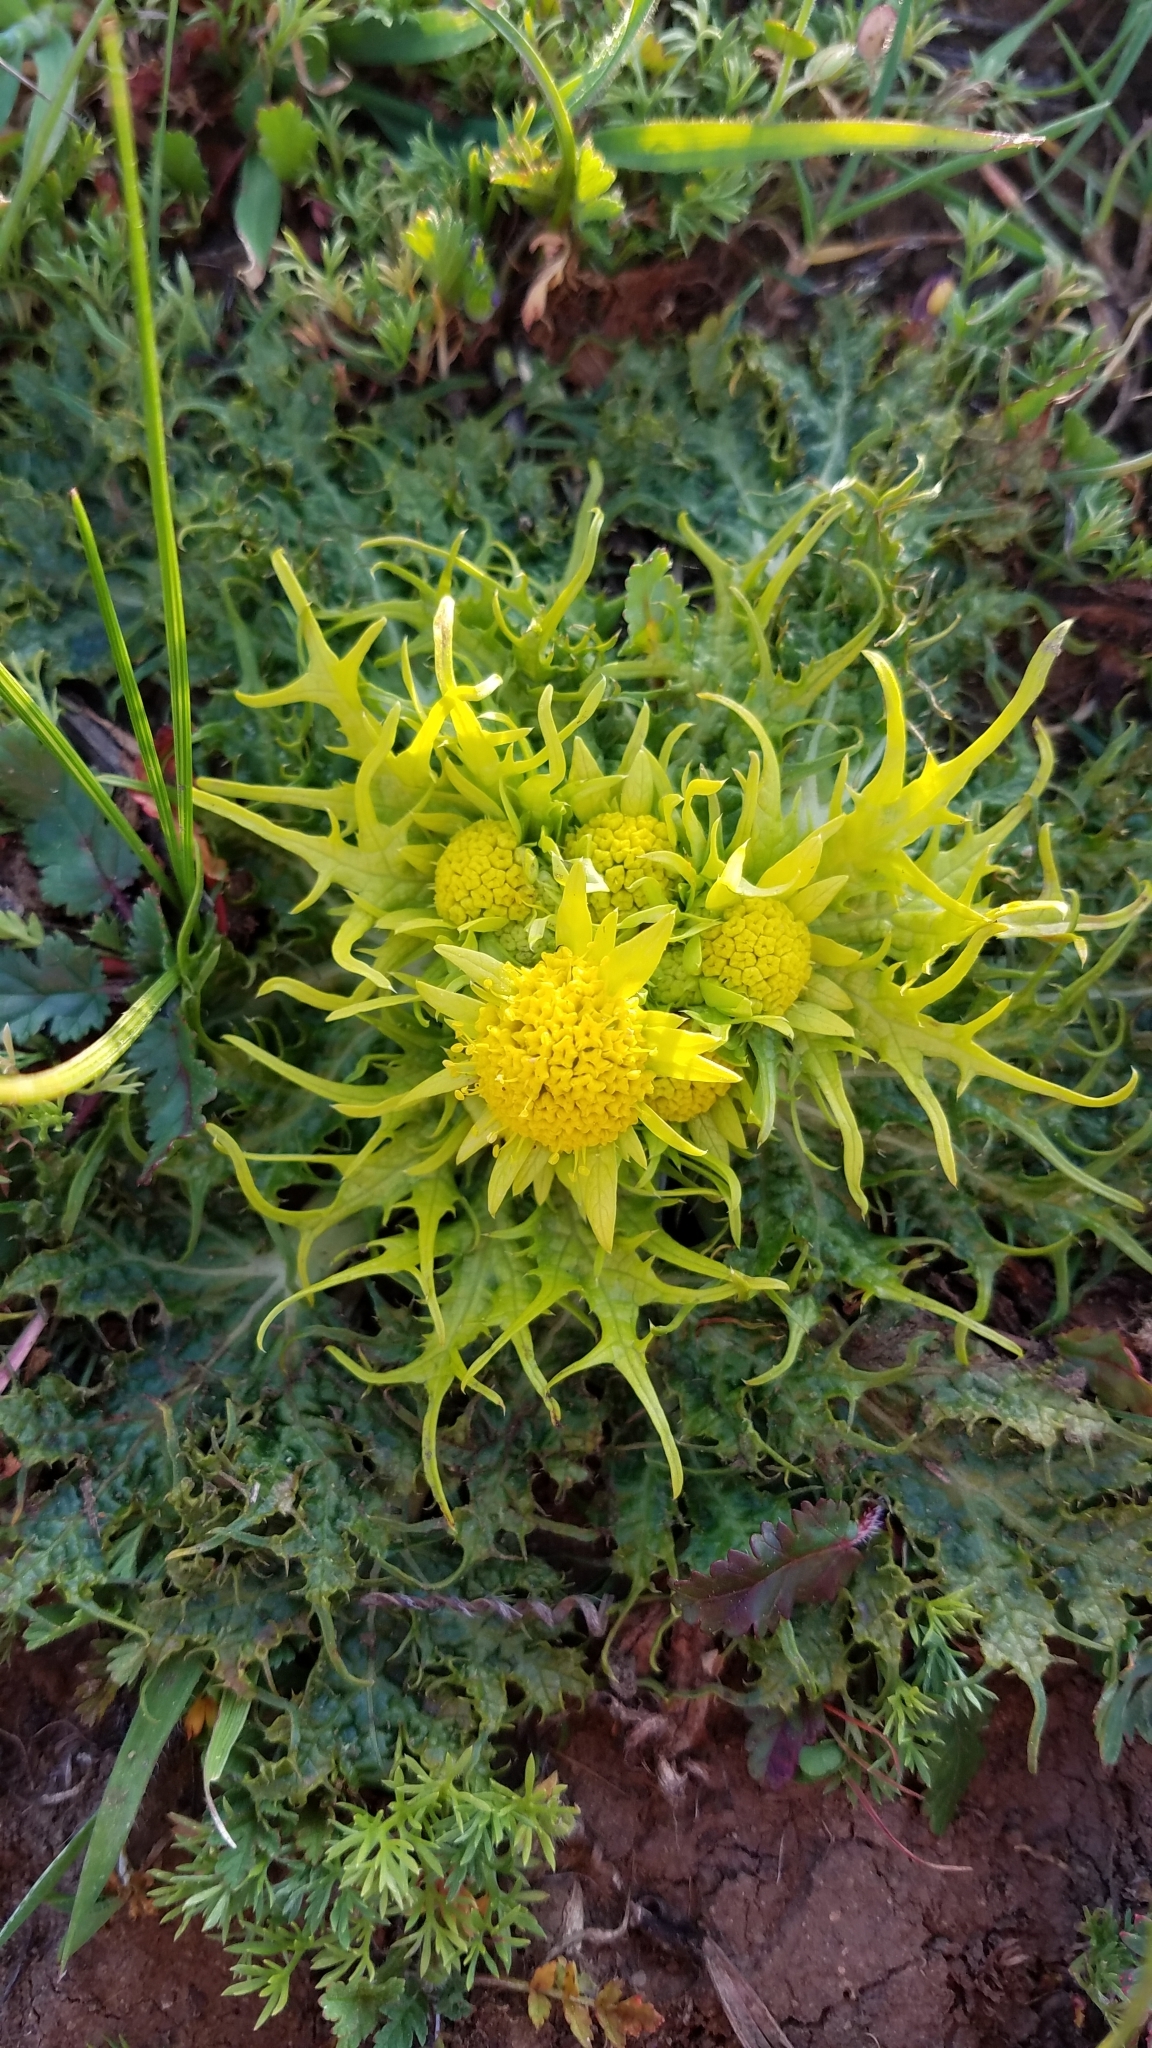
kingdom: Plantae
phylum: Tracheophyta
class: Magnoliopsida
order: Apiales
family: Apiaceae
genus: Sanicula
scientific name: Sanicula arctopoides
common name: Footsteps-of-spring
